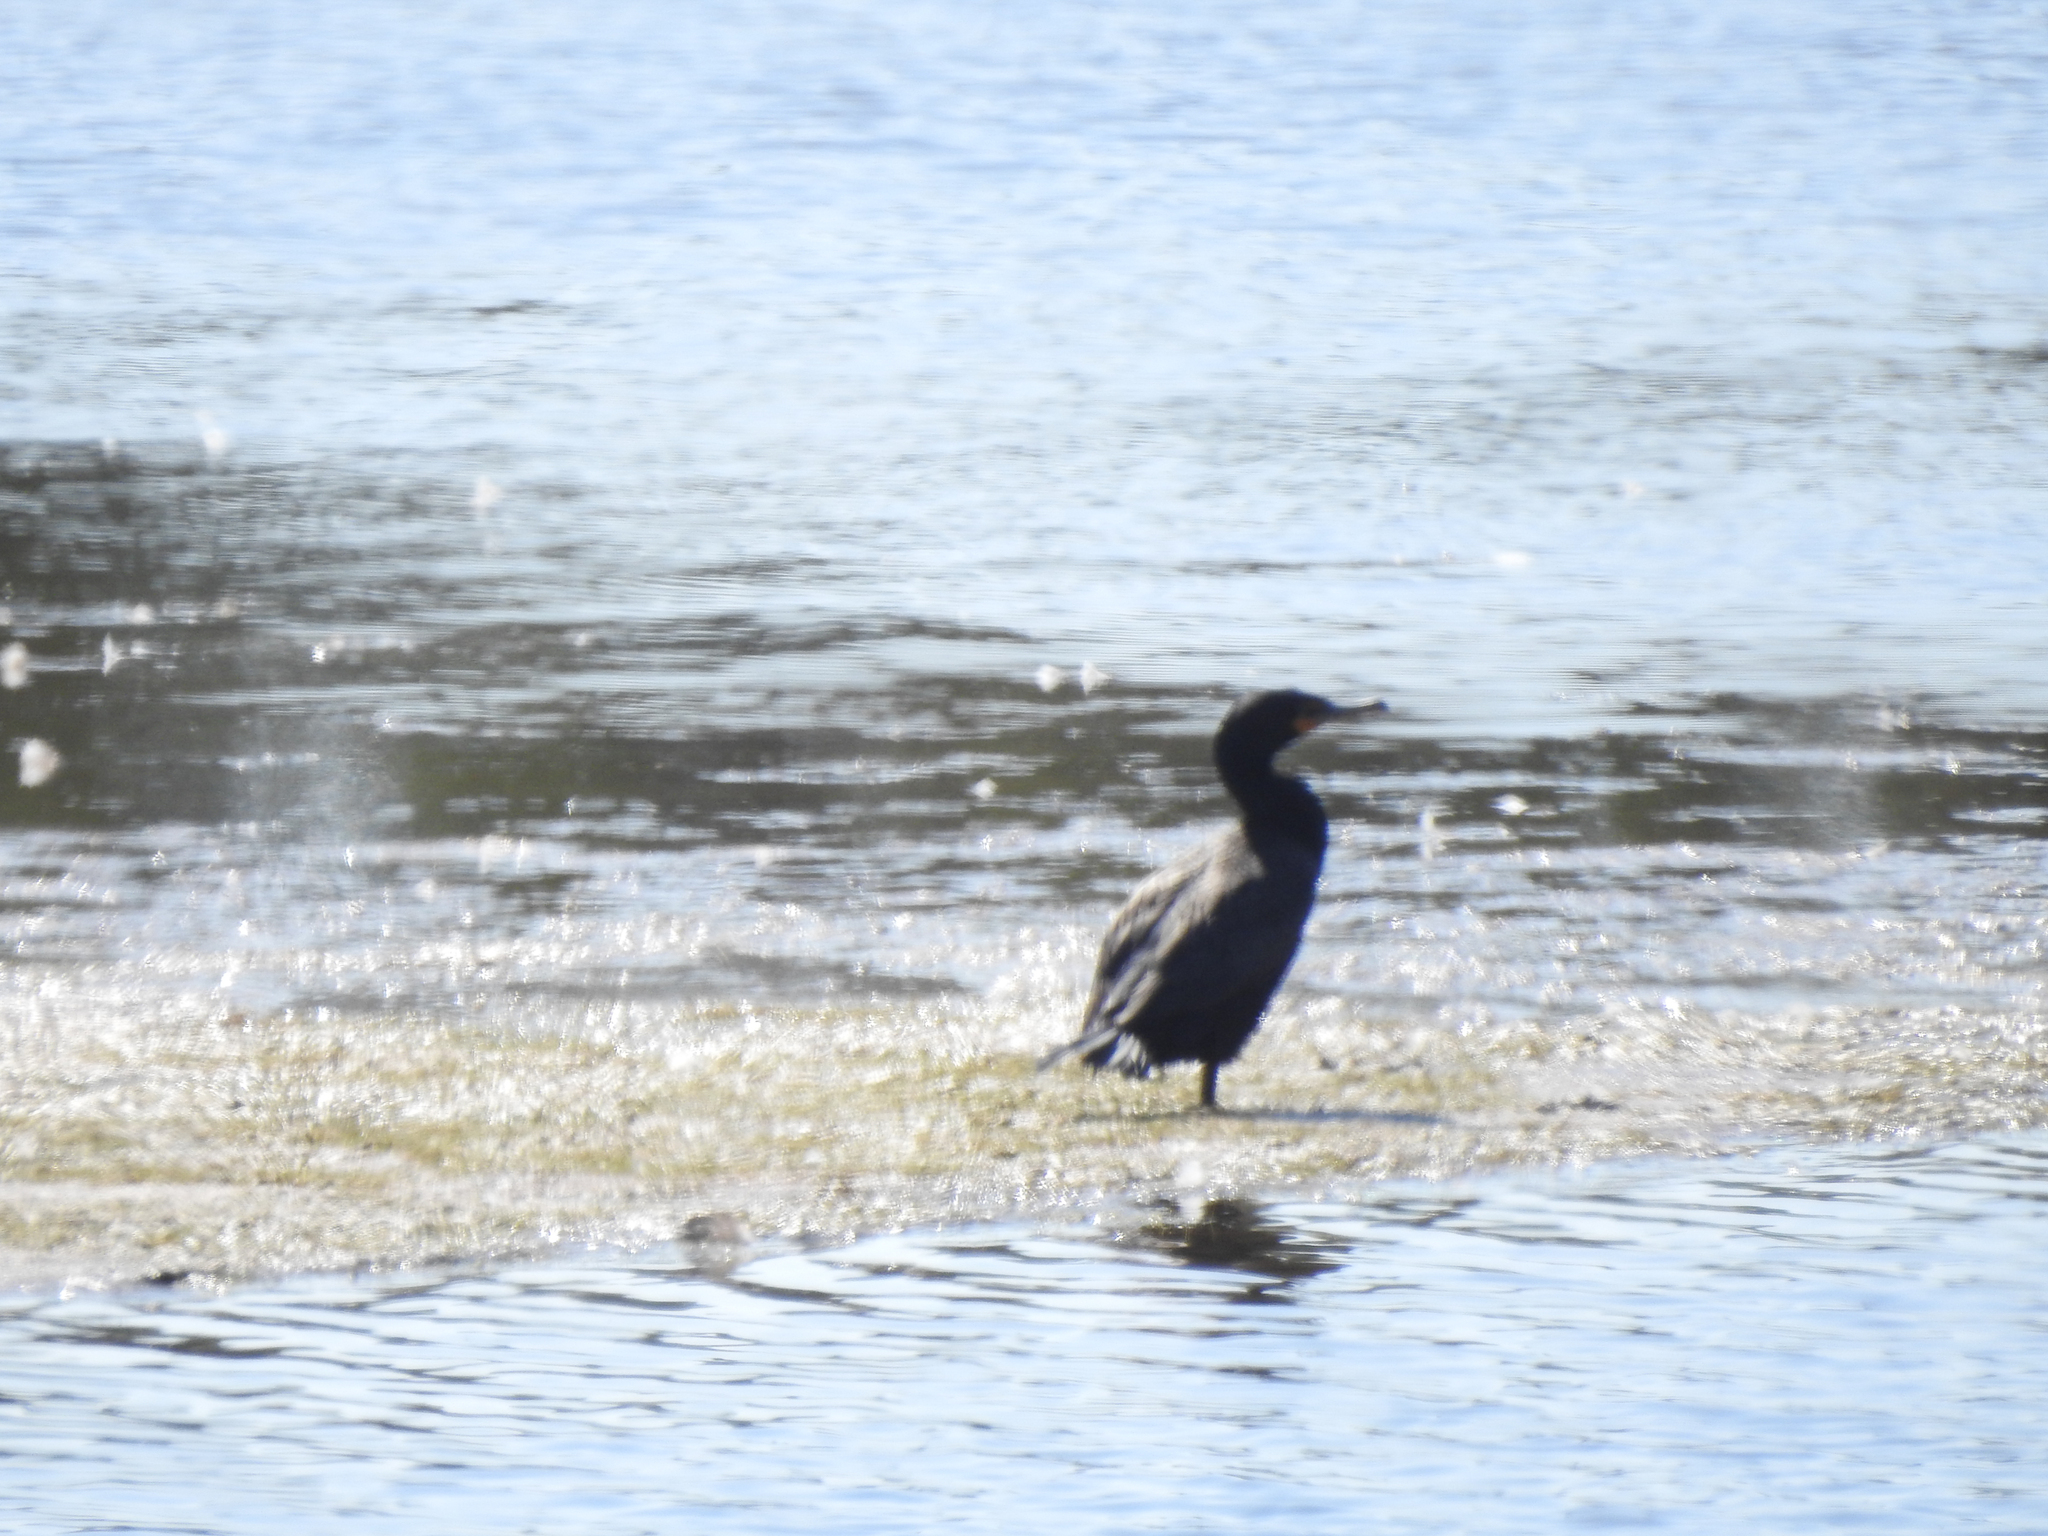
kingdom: Animalia
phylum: Chordata
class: Aves
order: Suliformes
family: Phalacrocoracidae
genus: Phalacrocorax
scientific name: Phalacrocorax auritus
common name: Double-crested cormorant
